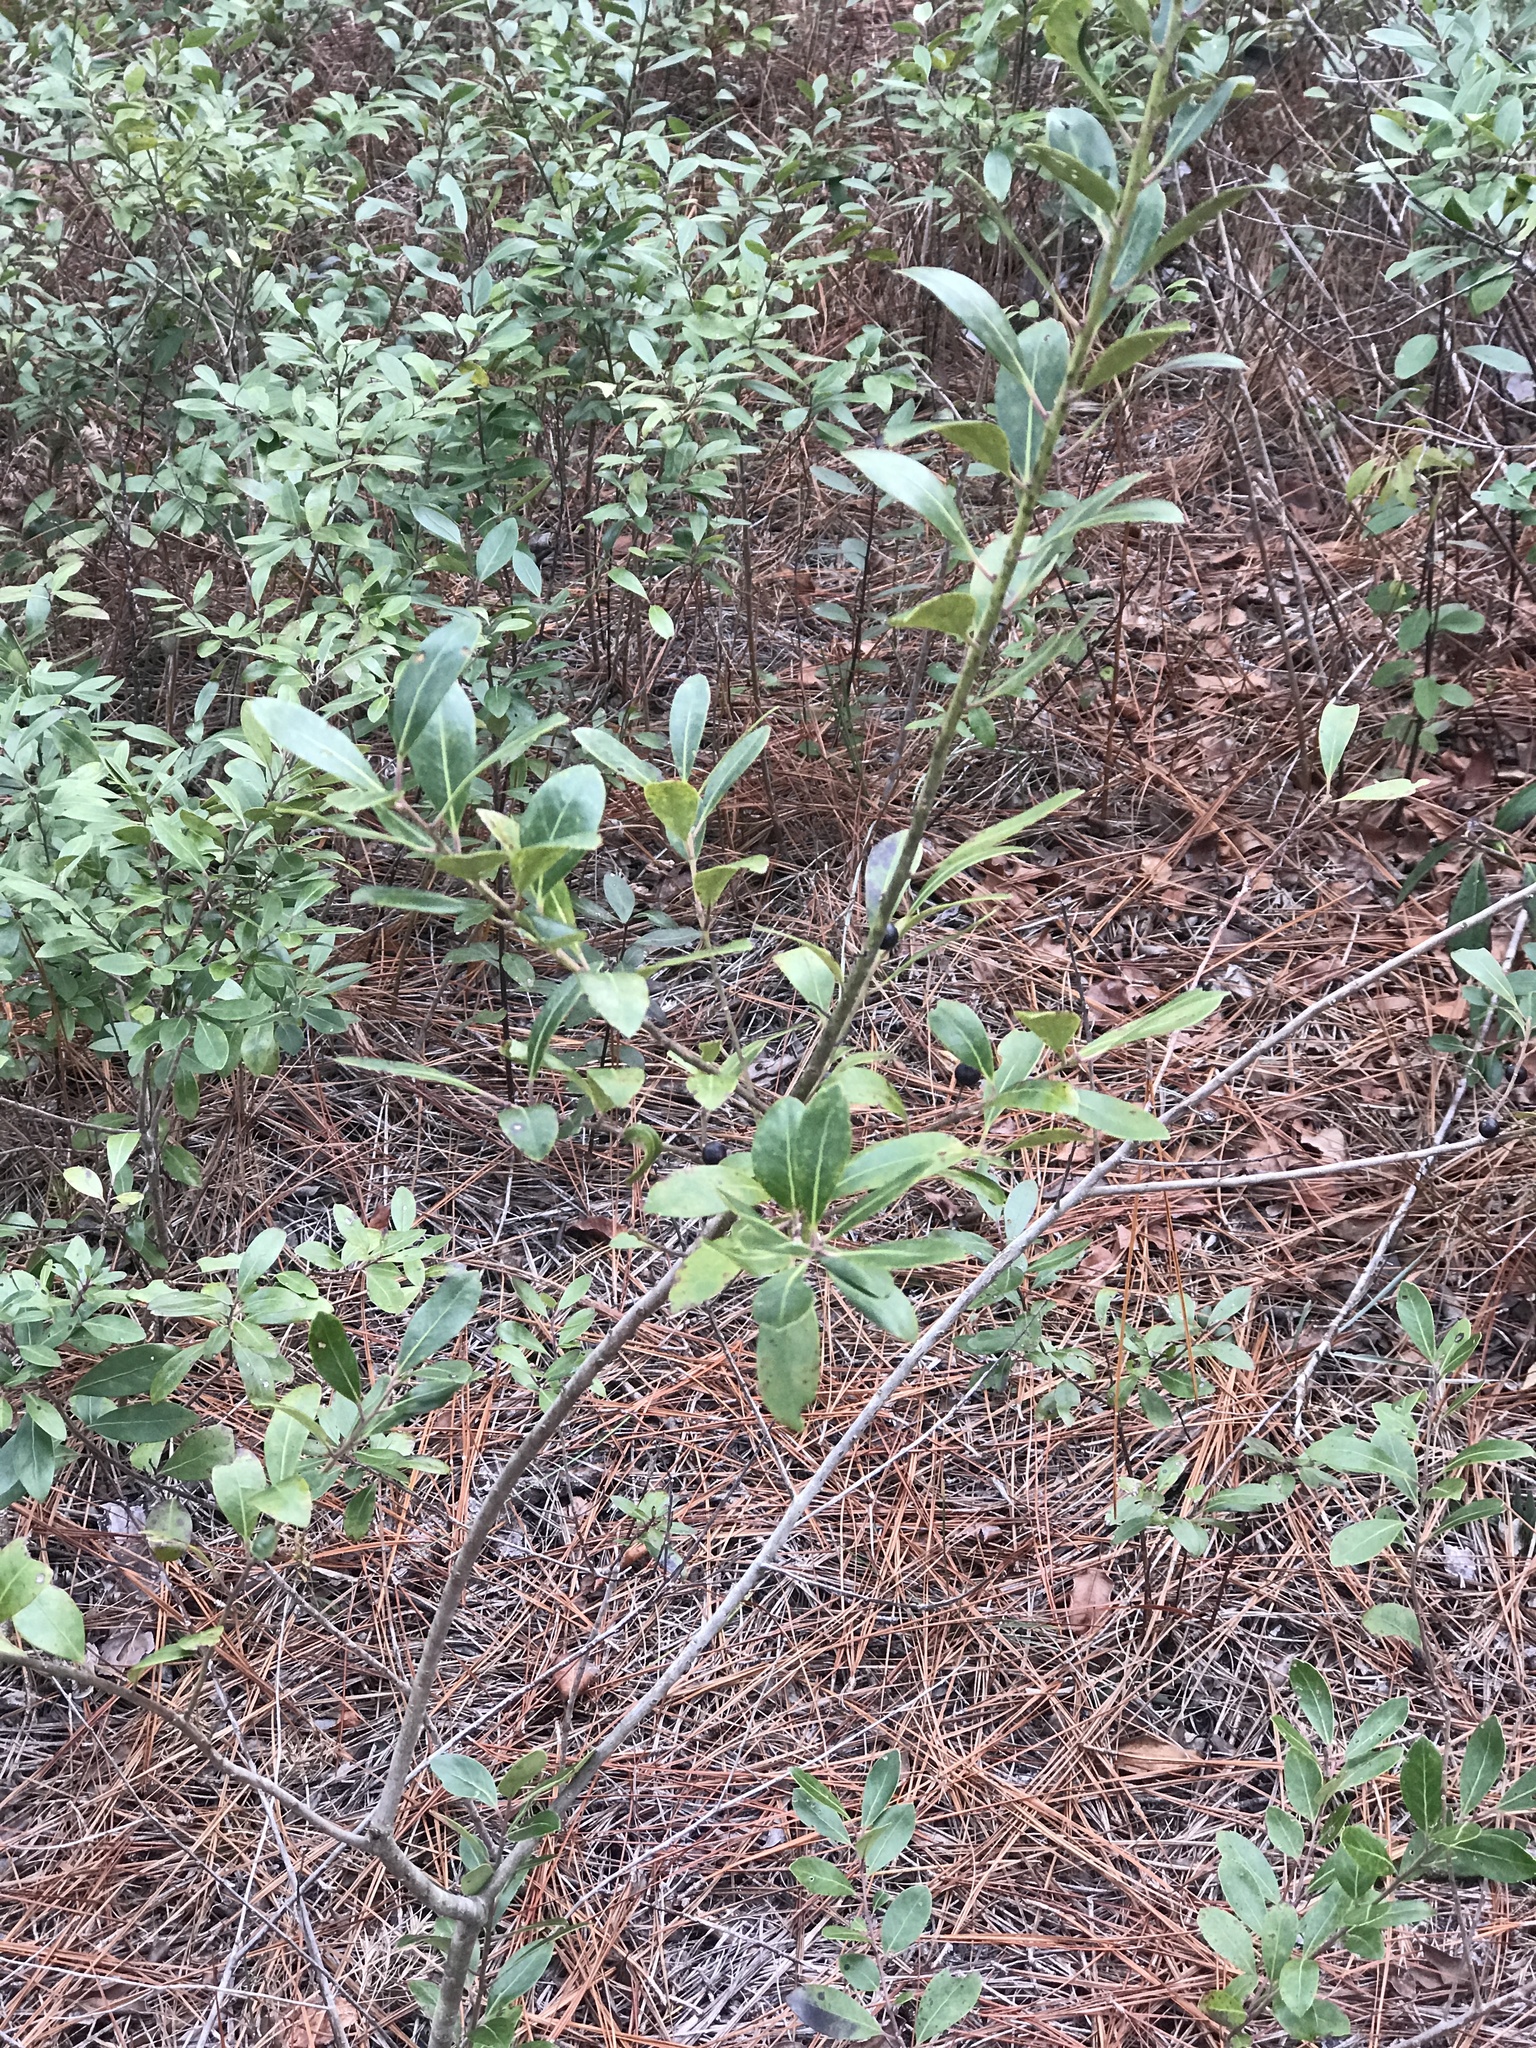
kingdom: Plantae
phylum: Tracheophyta
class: Magnoliopsida
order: Aquifoliales
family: Aquifoliaceae
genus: Ilex
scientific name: Ilex glabra
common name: Bitter gallberry
